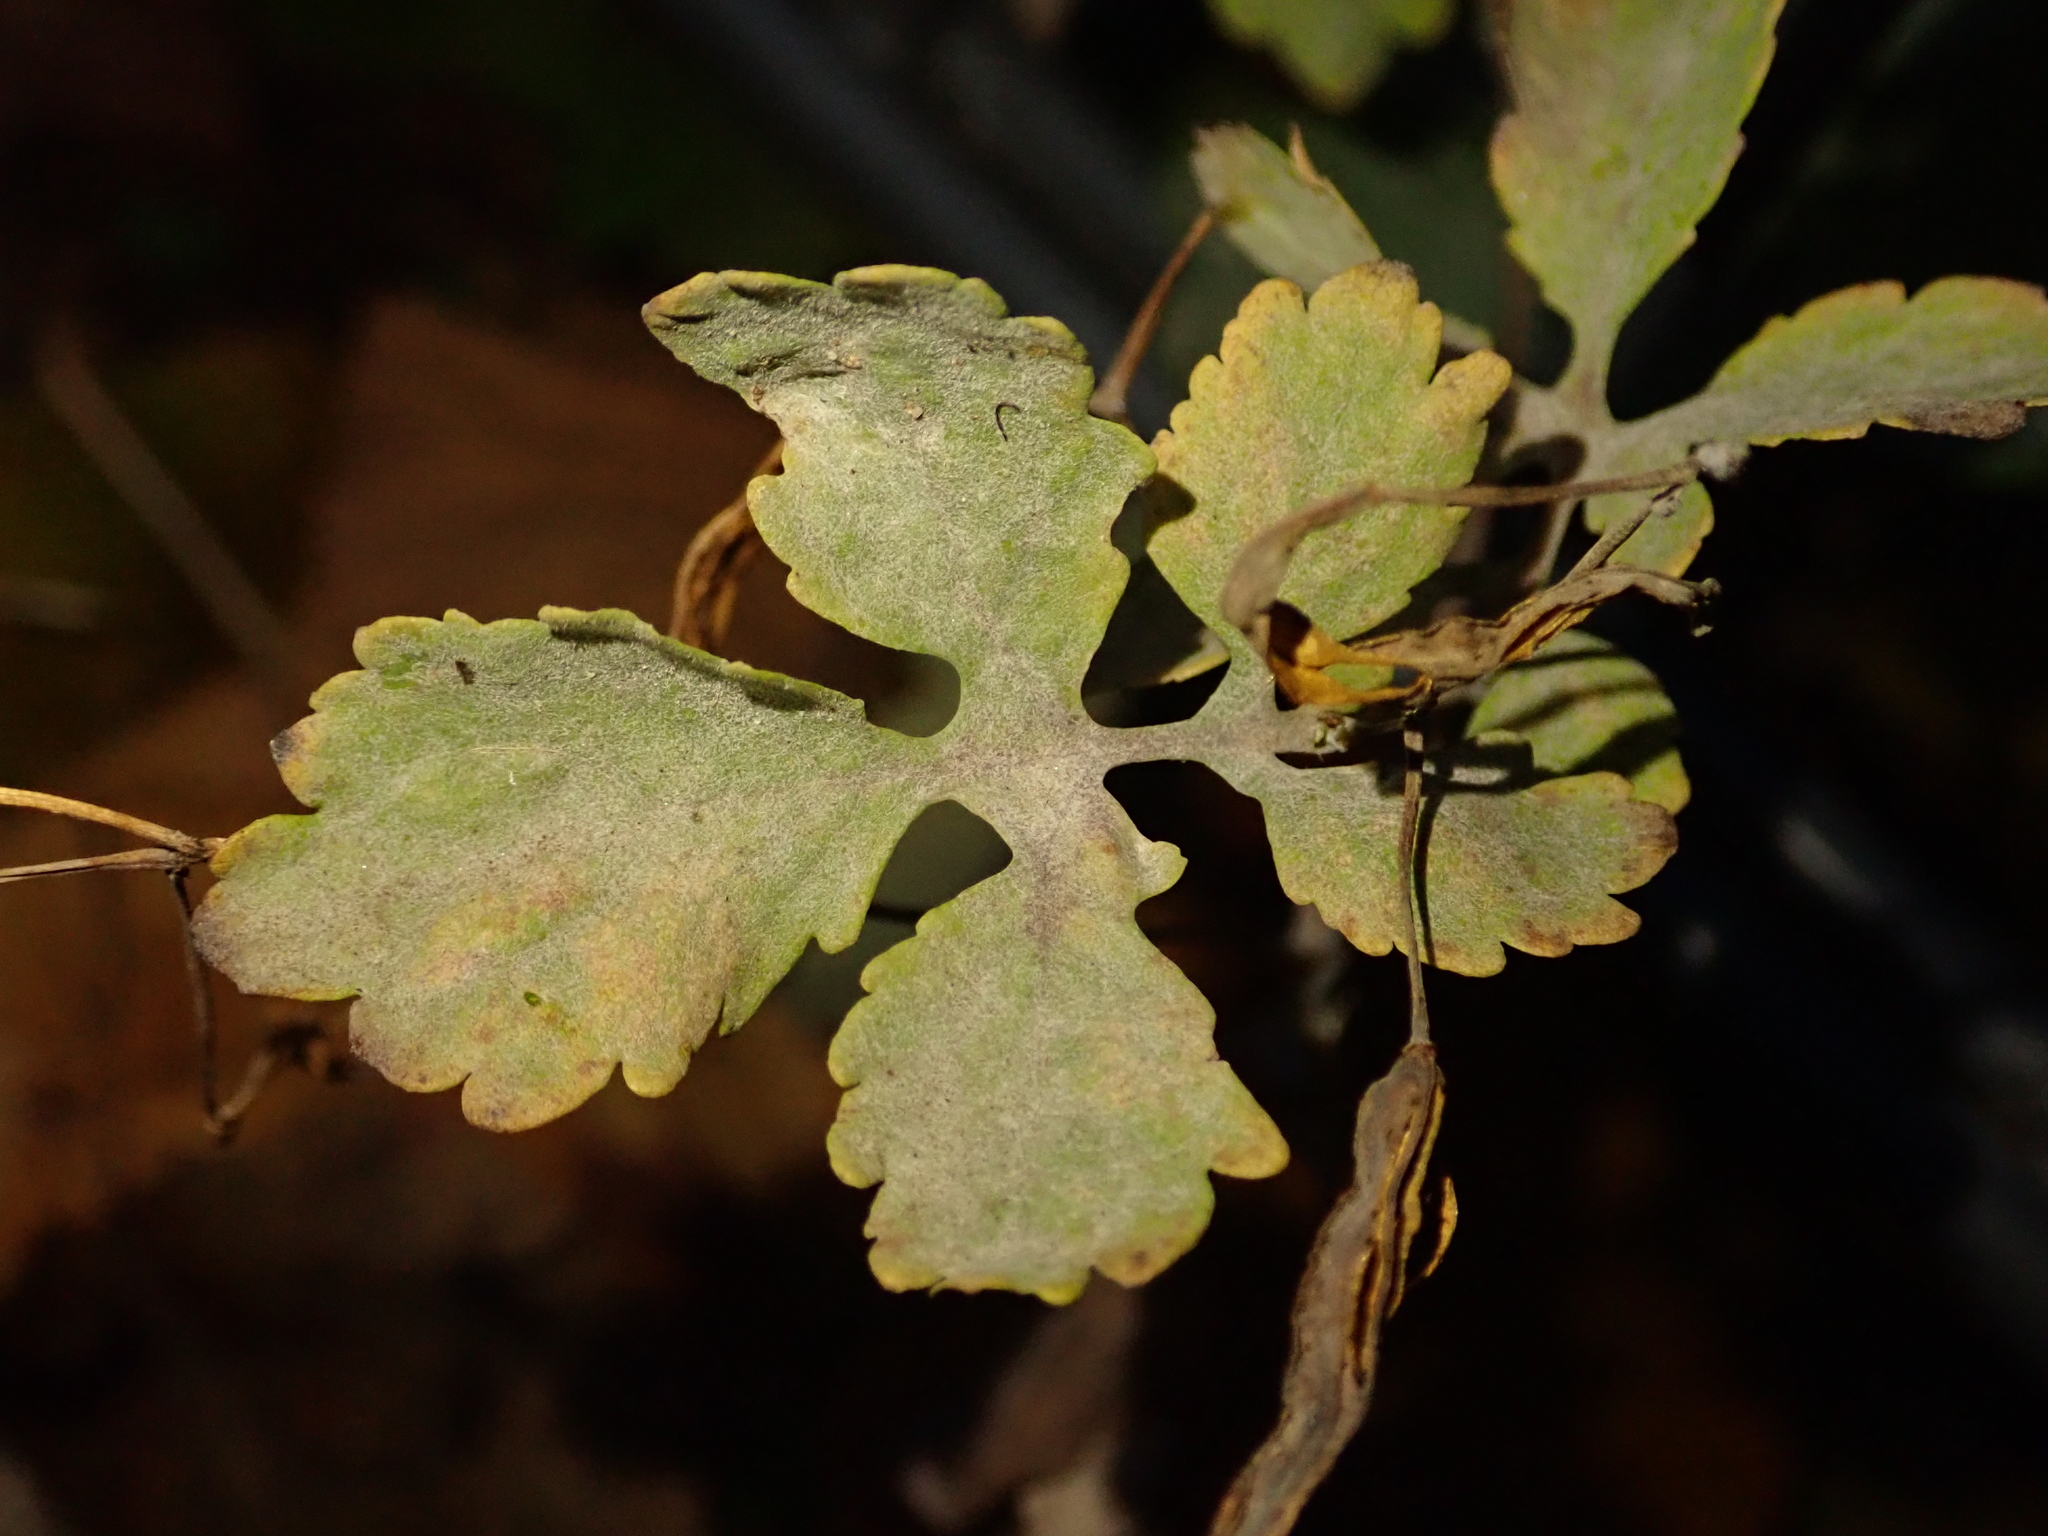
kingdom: Plantae
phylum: Tracheophyta
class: Magnoliopsida
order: Ranunculales
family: Papaveraceae
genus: Chelidonium
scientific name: Chelidonium majus
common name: Greater celandine
